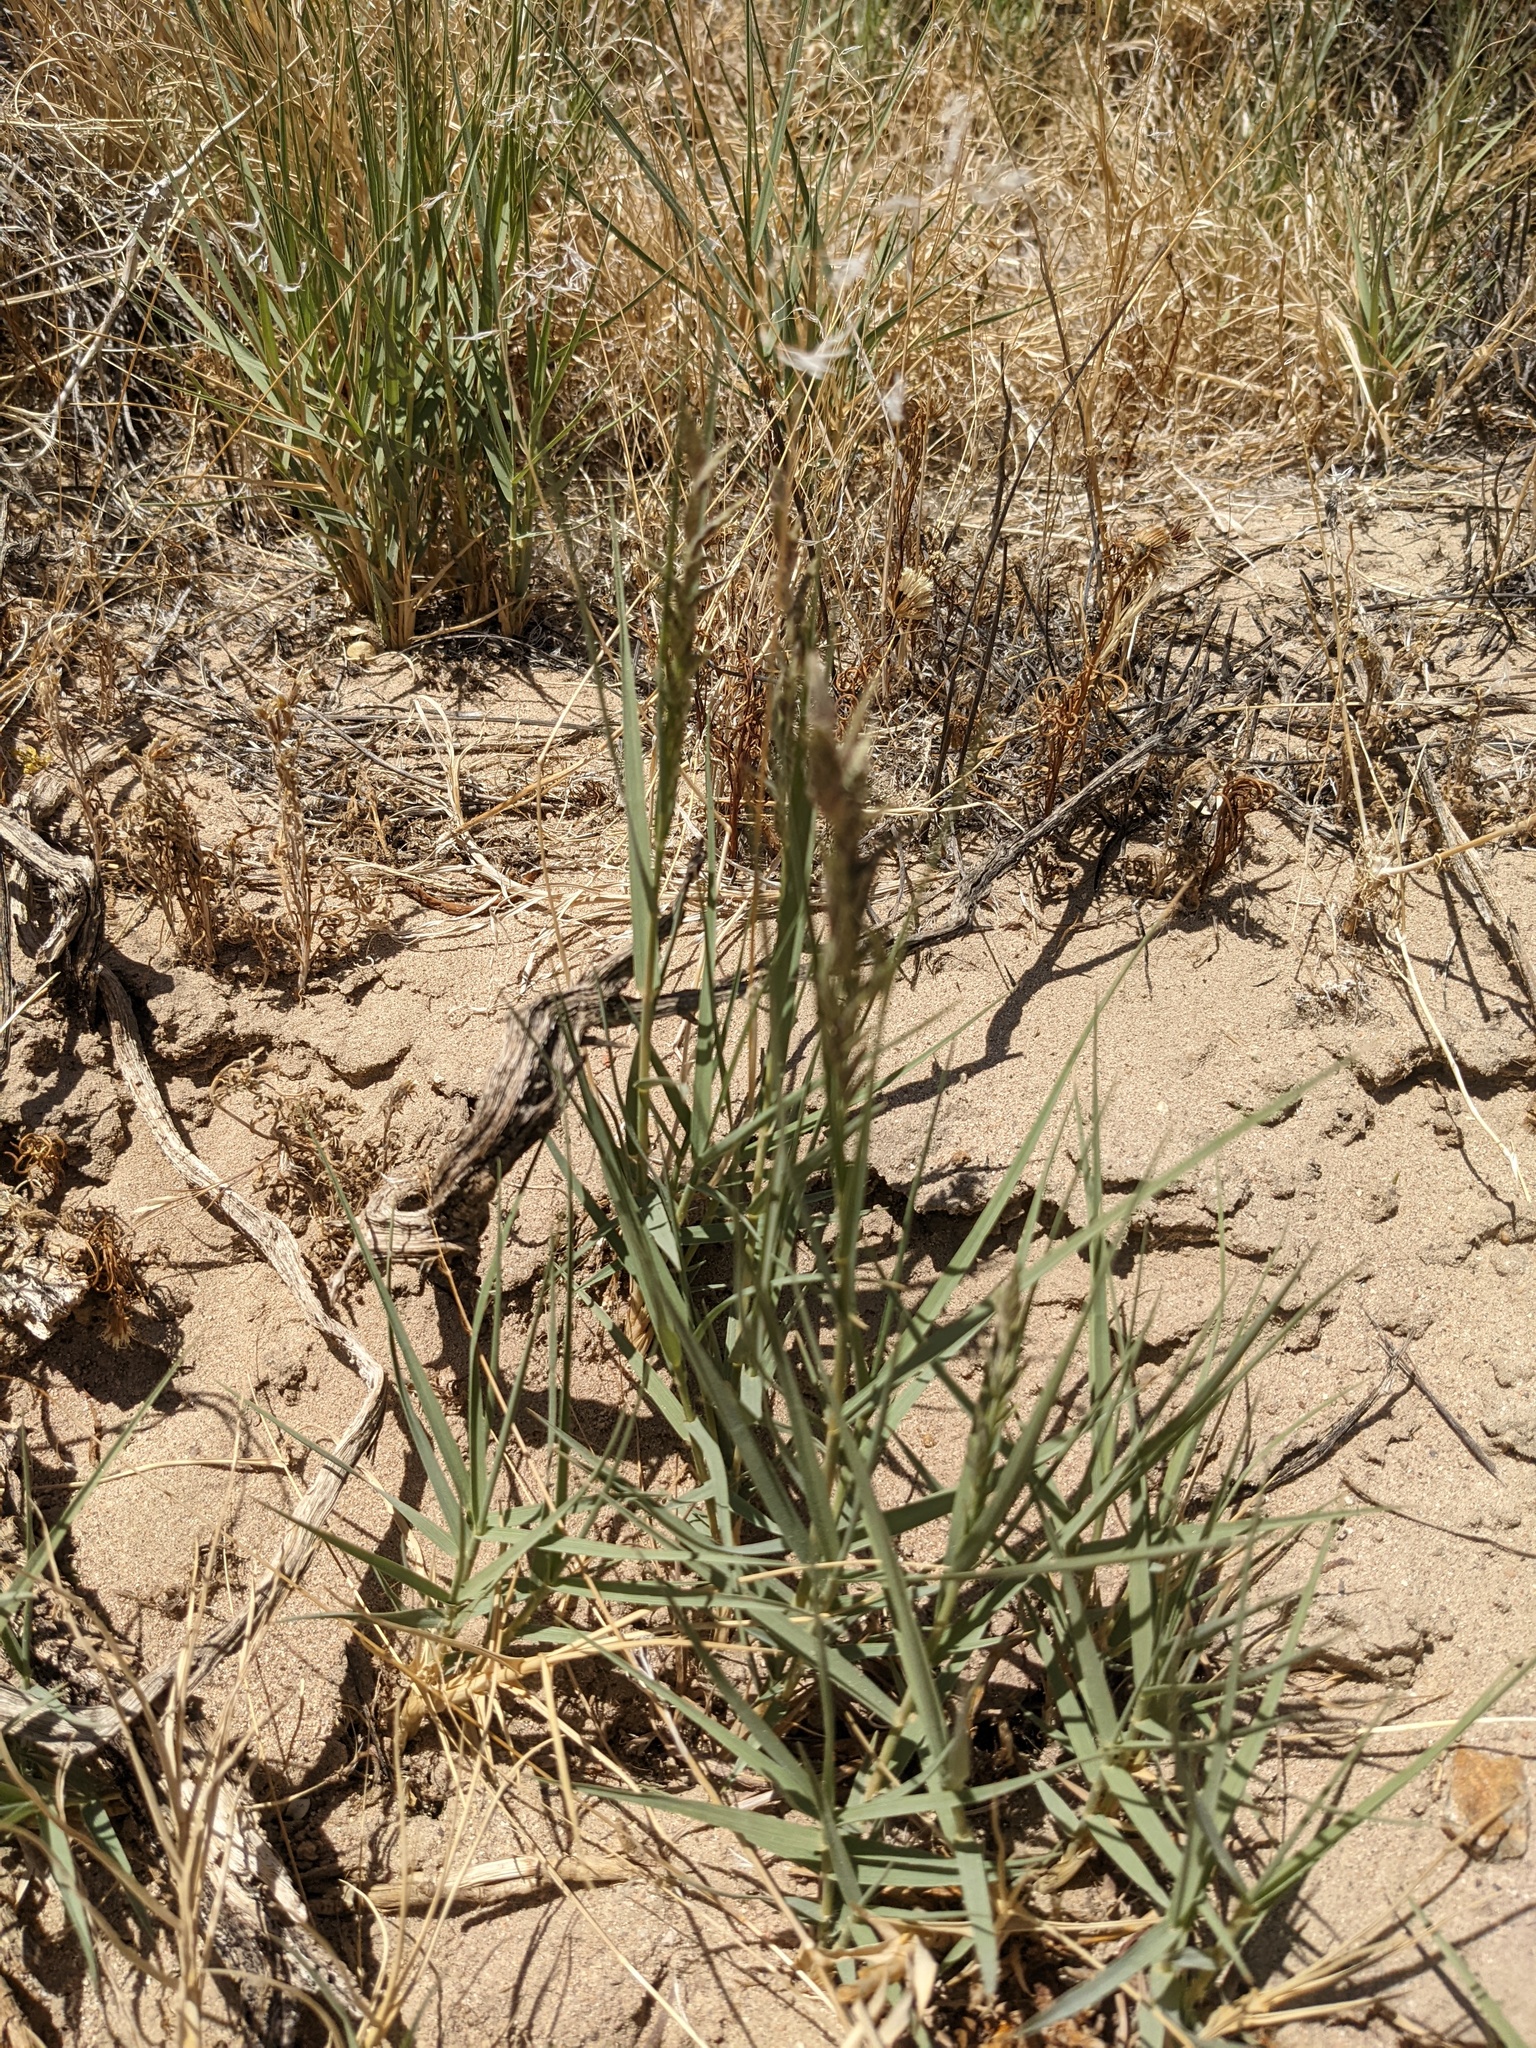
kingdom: Plantae
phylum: Tracheophyta
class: Liliopsida
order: Poales
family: Poaceae
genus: Distichlis
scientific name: Distichlis spicata
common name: Saltgrass
